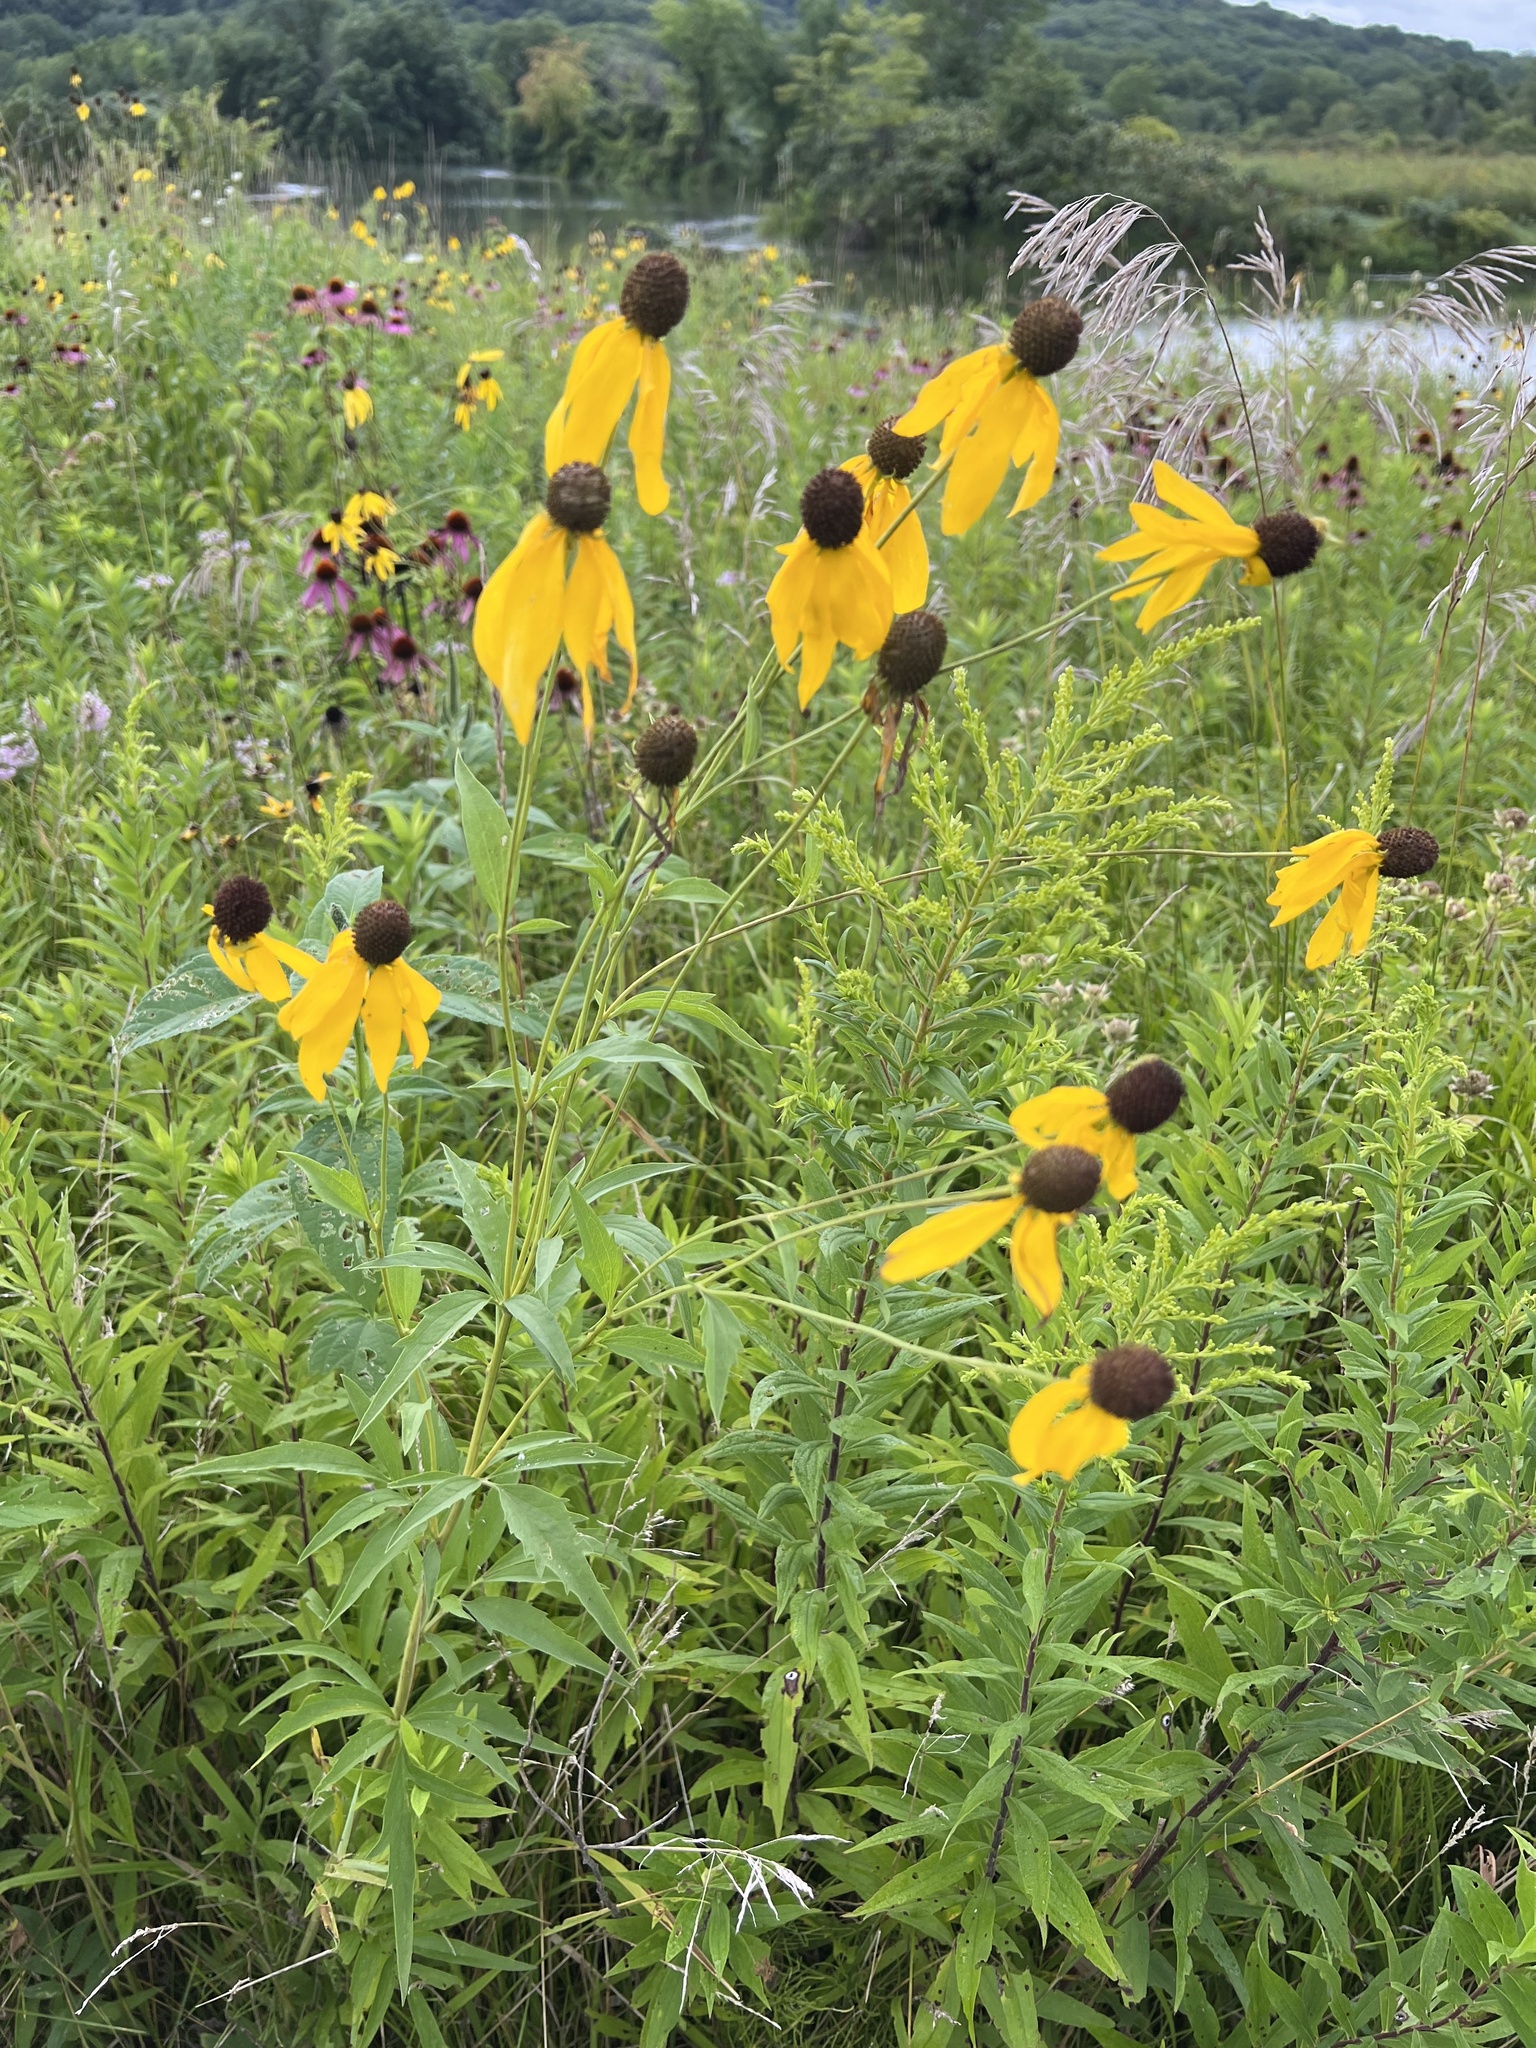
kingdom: Plantae
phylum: Tracheophyta
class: Magnoliopsida
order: Asterales
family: Asteraceae
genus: Ratibida
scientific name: Ratibida pinnata
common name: Drooping prairie-coneflower
